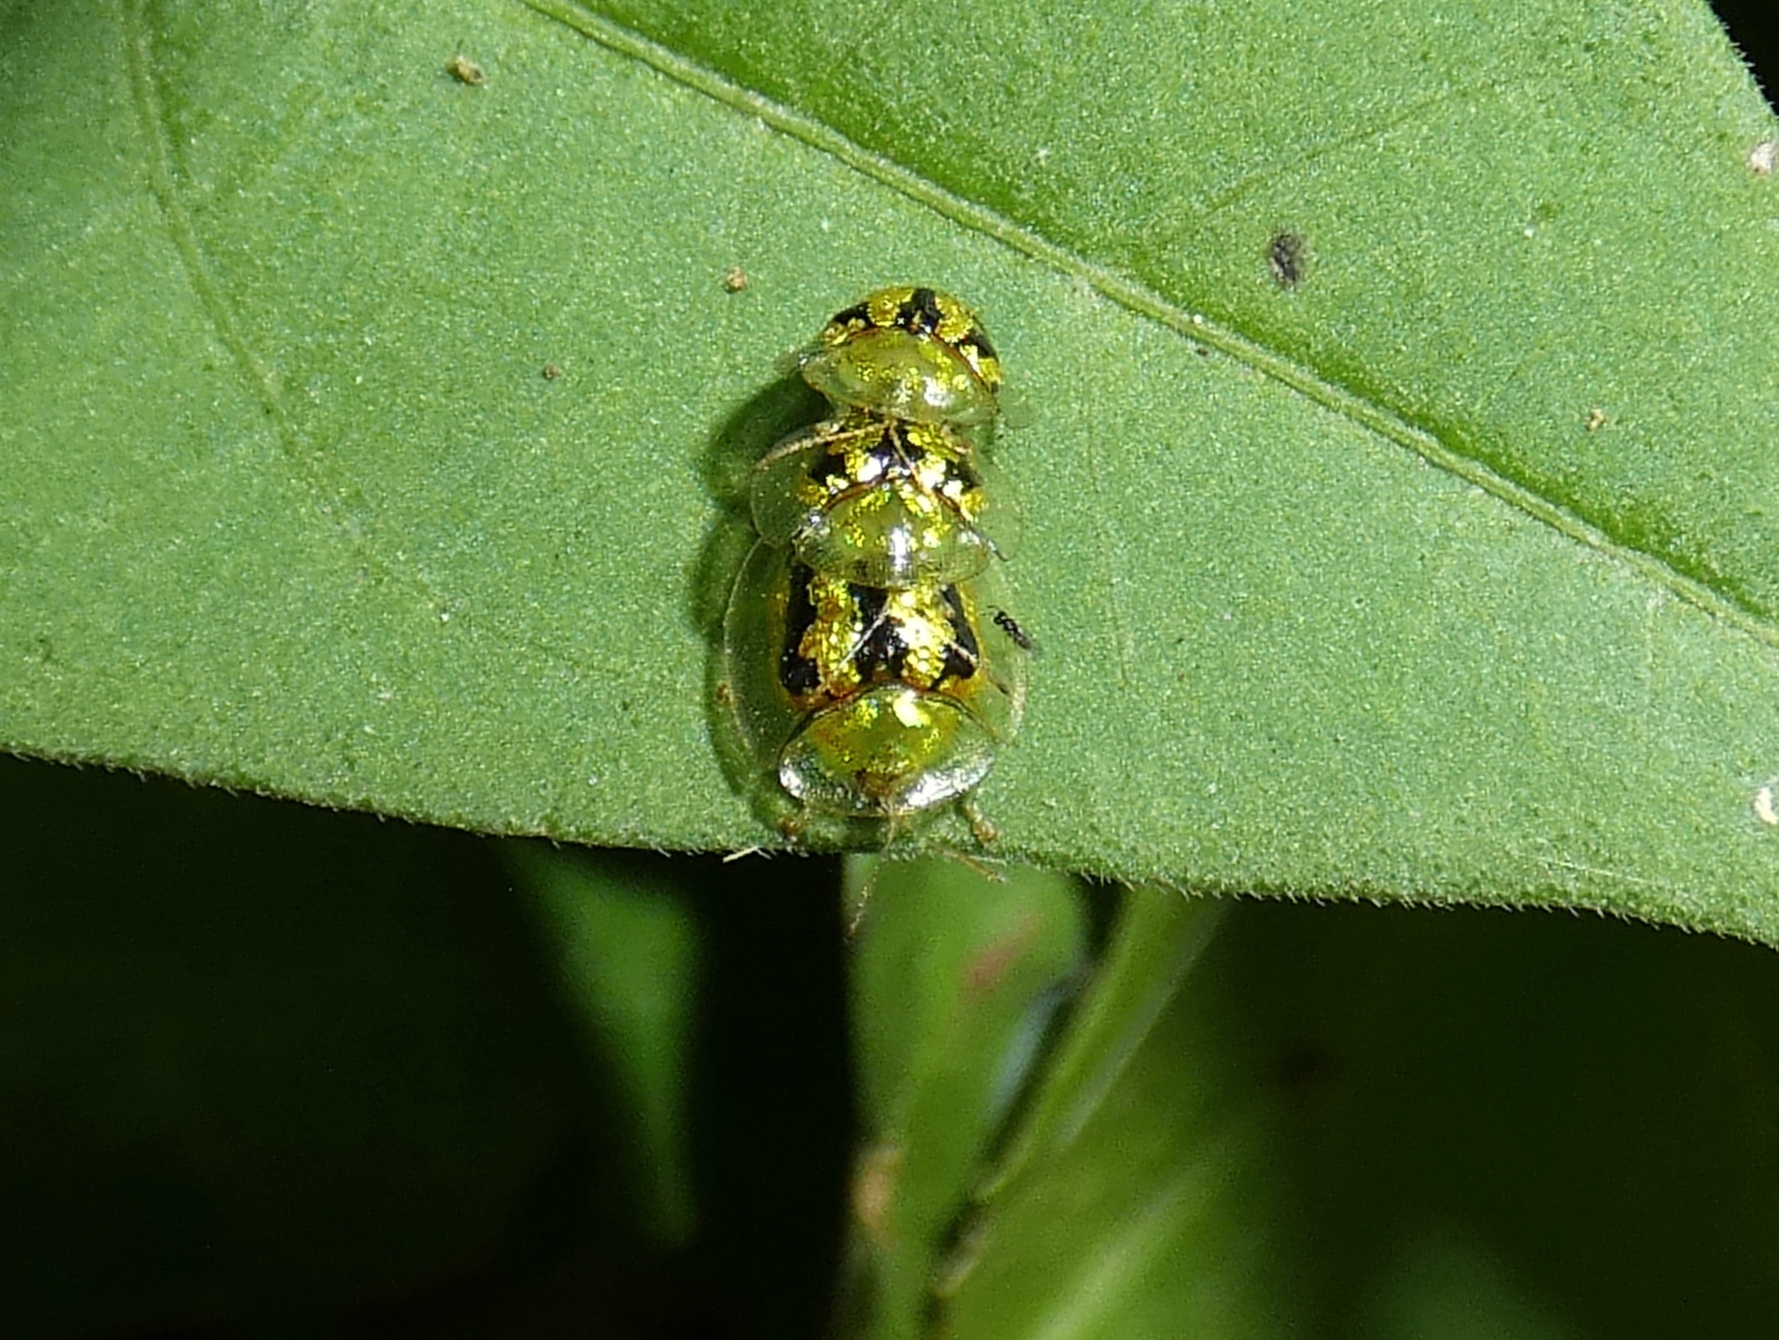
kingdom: Animalia
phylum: Arthropoda
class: Insecta
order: Coleoptera
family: Chrysomelidae
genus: Cassida
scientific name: Cassida circumdata
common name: Tortoise beetle
